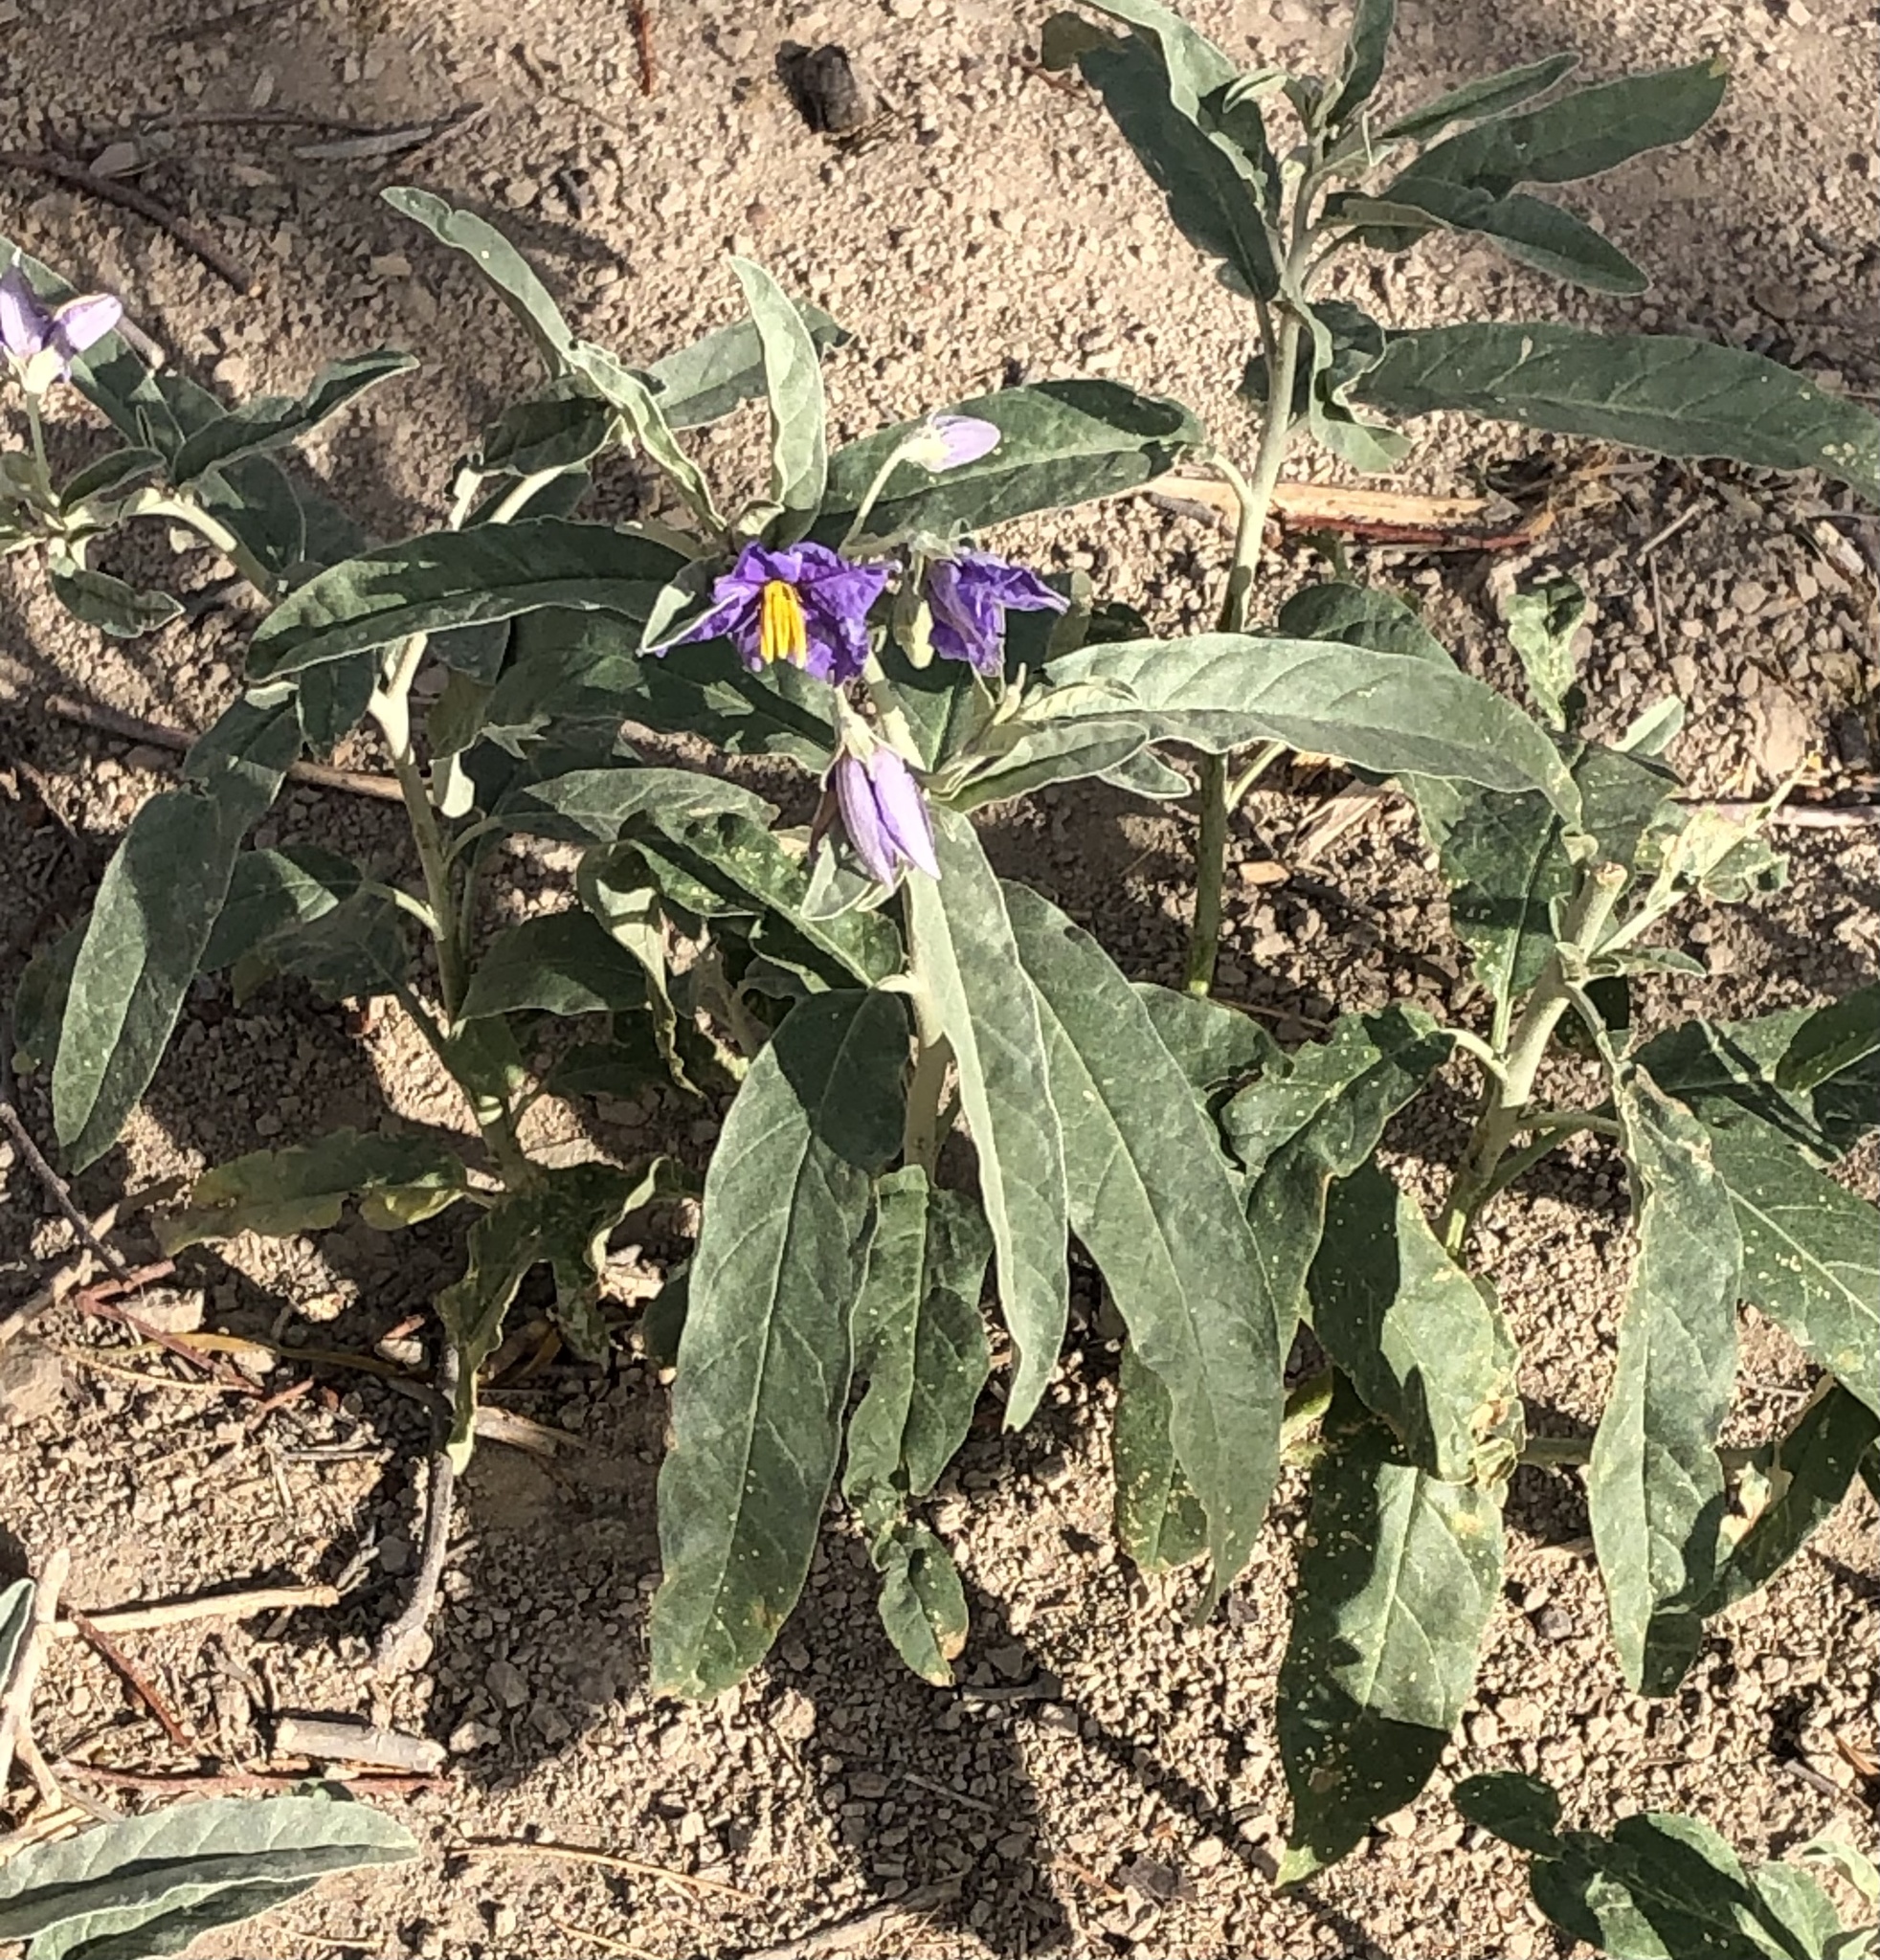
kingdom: Plantae
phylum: Tracheophyta
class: Magnoliopsida
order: Solanales
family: Solanaceae
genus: Solanum
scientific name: Solanum elaeagnifolium
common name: Silverleaf nightshade
